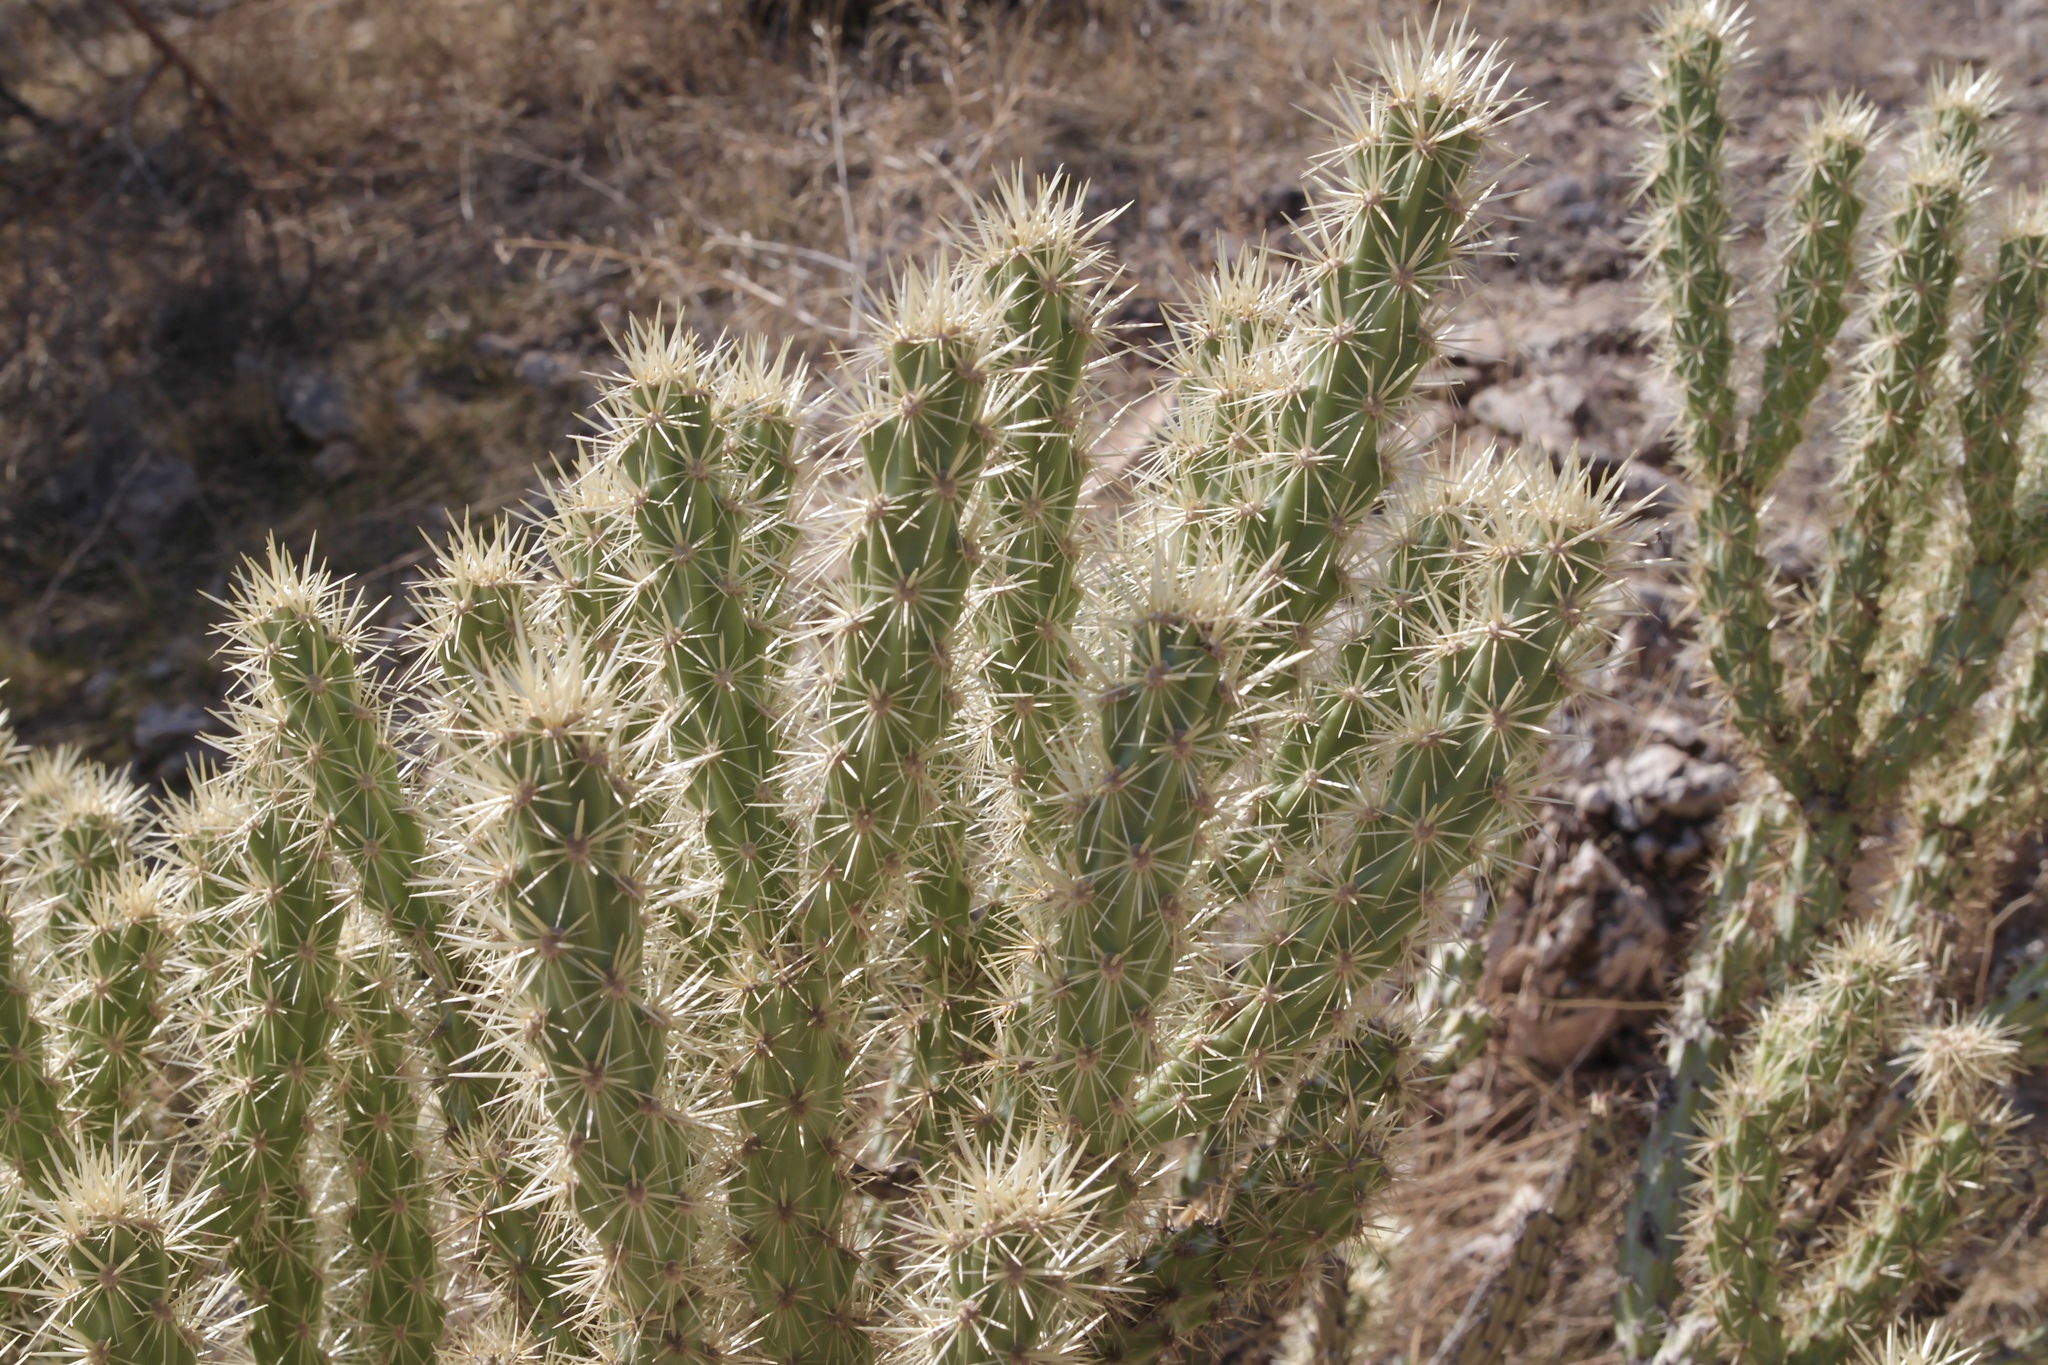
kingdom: Plantae
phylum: Tracheophyta
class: Magnoliopsida
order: Caryophyllales
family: Cactaceae
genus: Cylindropuntia
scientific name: Cylindropuntia acanthocarpa
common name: Buckhorn cholla
